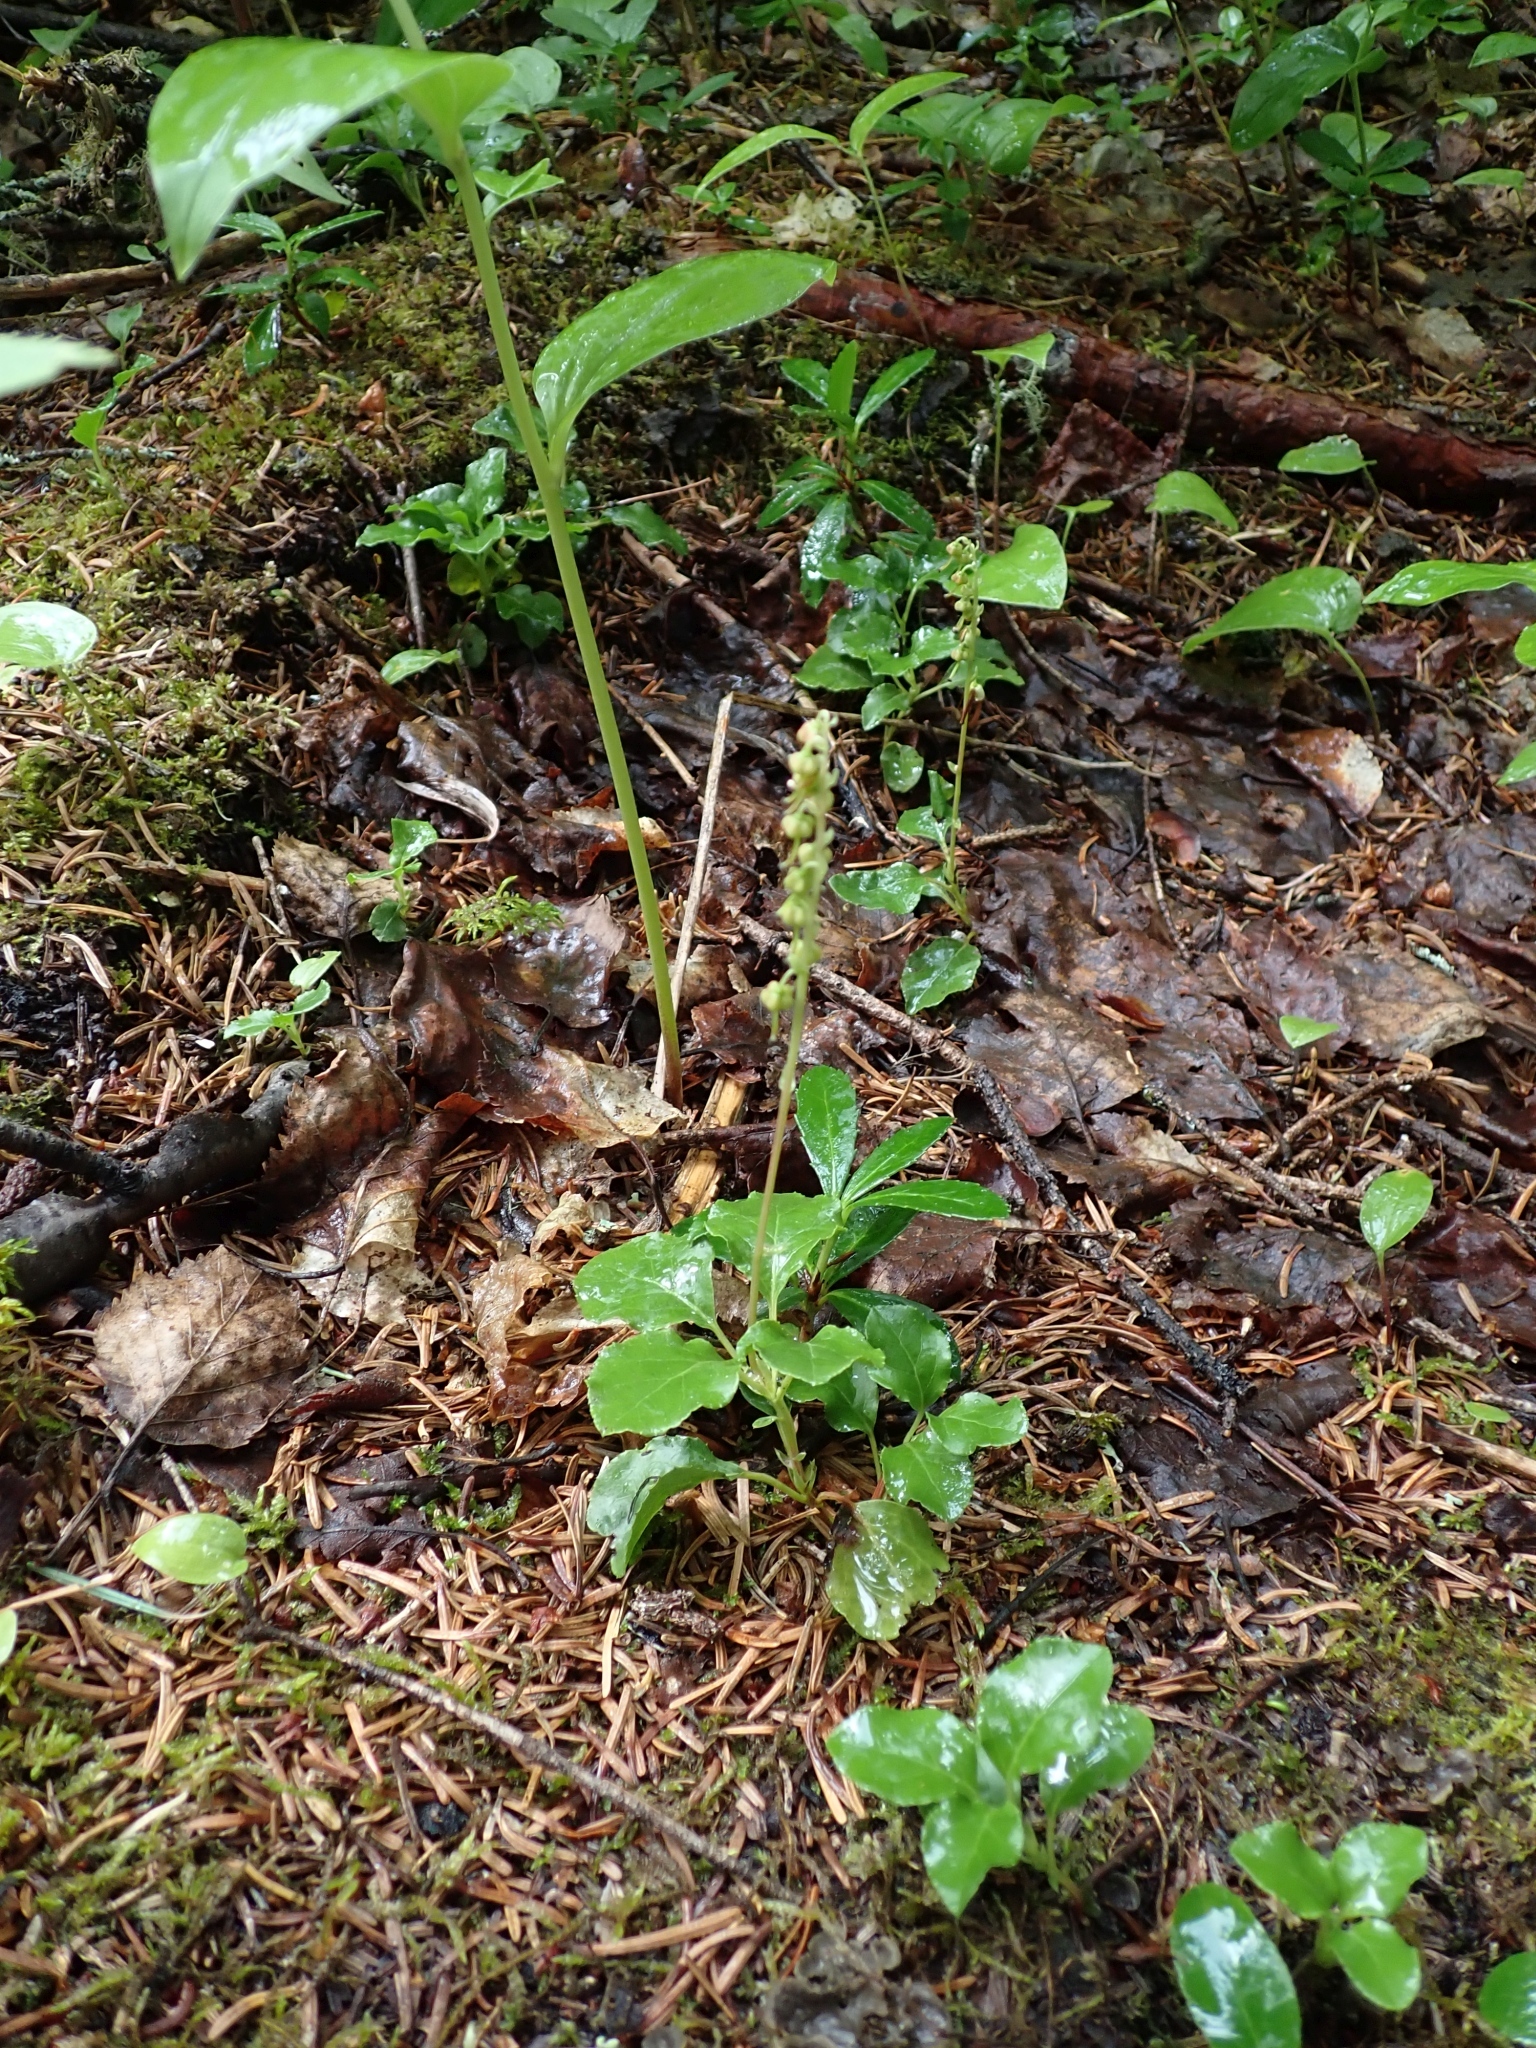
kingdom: Plantae
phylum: Tracheophyta
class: Magnoliopsida
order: Ericales
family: Ericaceae
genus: Orthilia
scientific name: Orthilia secunda
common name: One-sided orthilia
